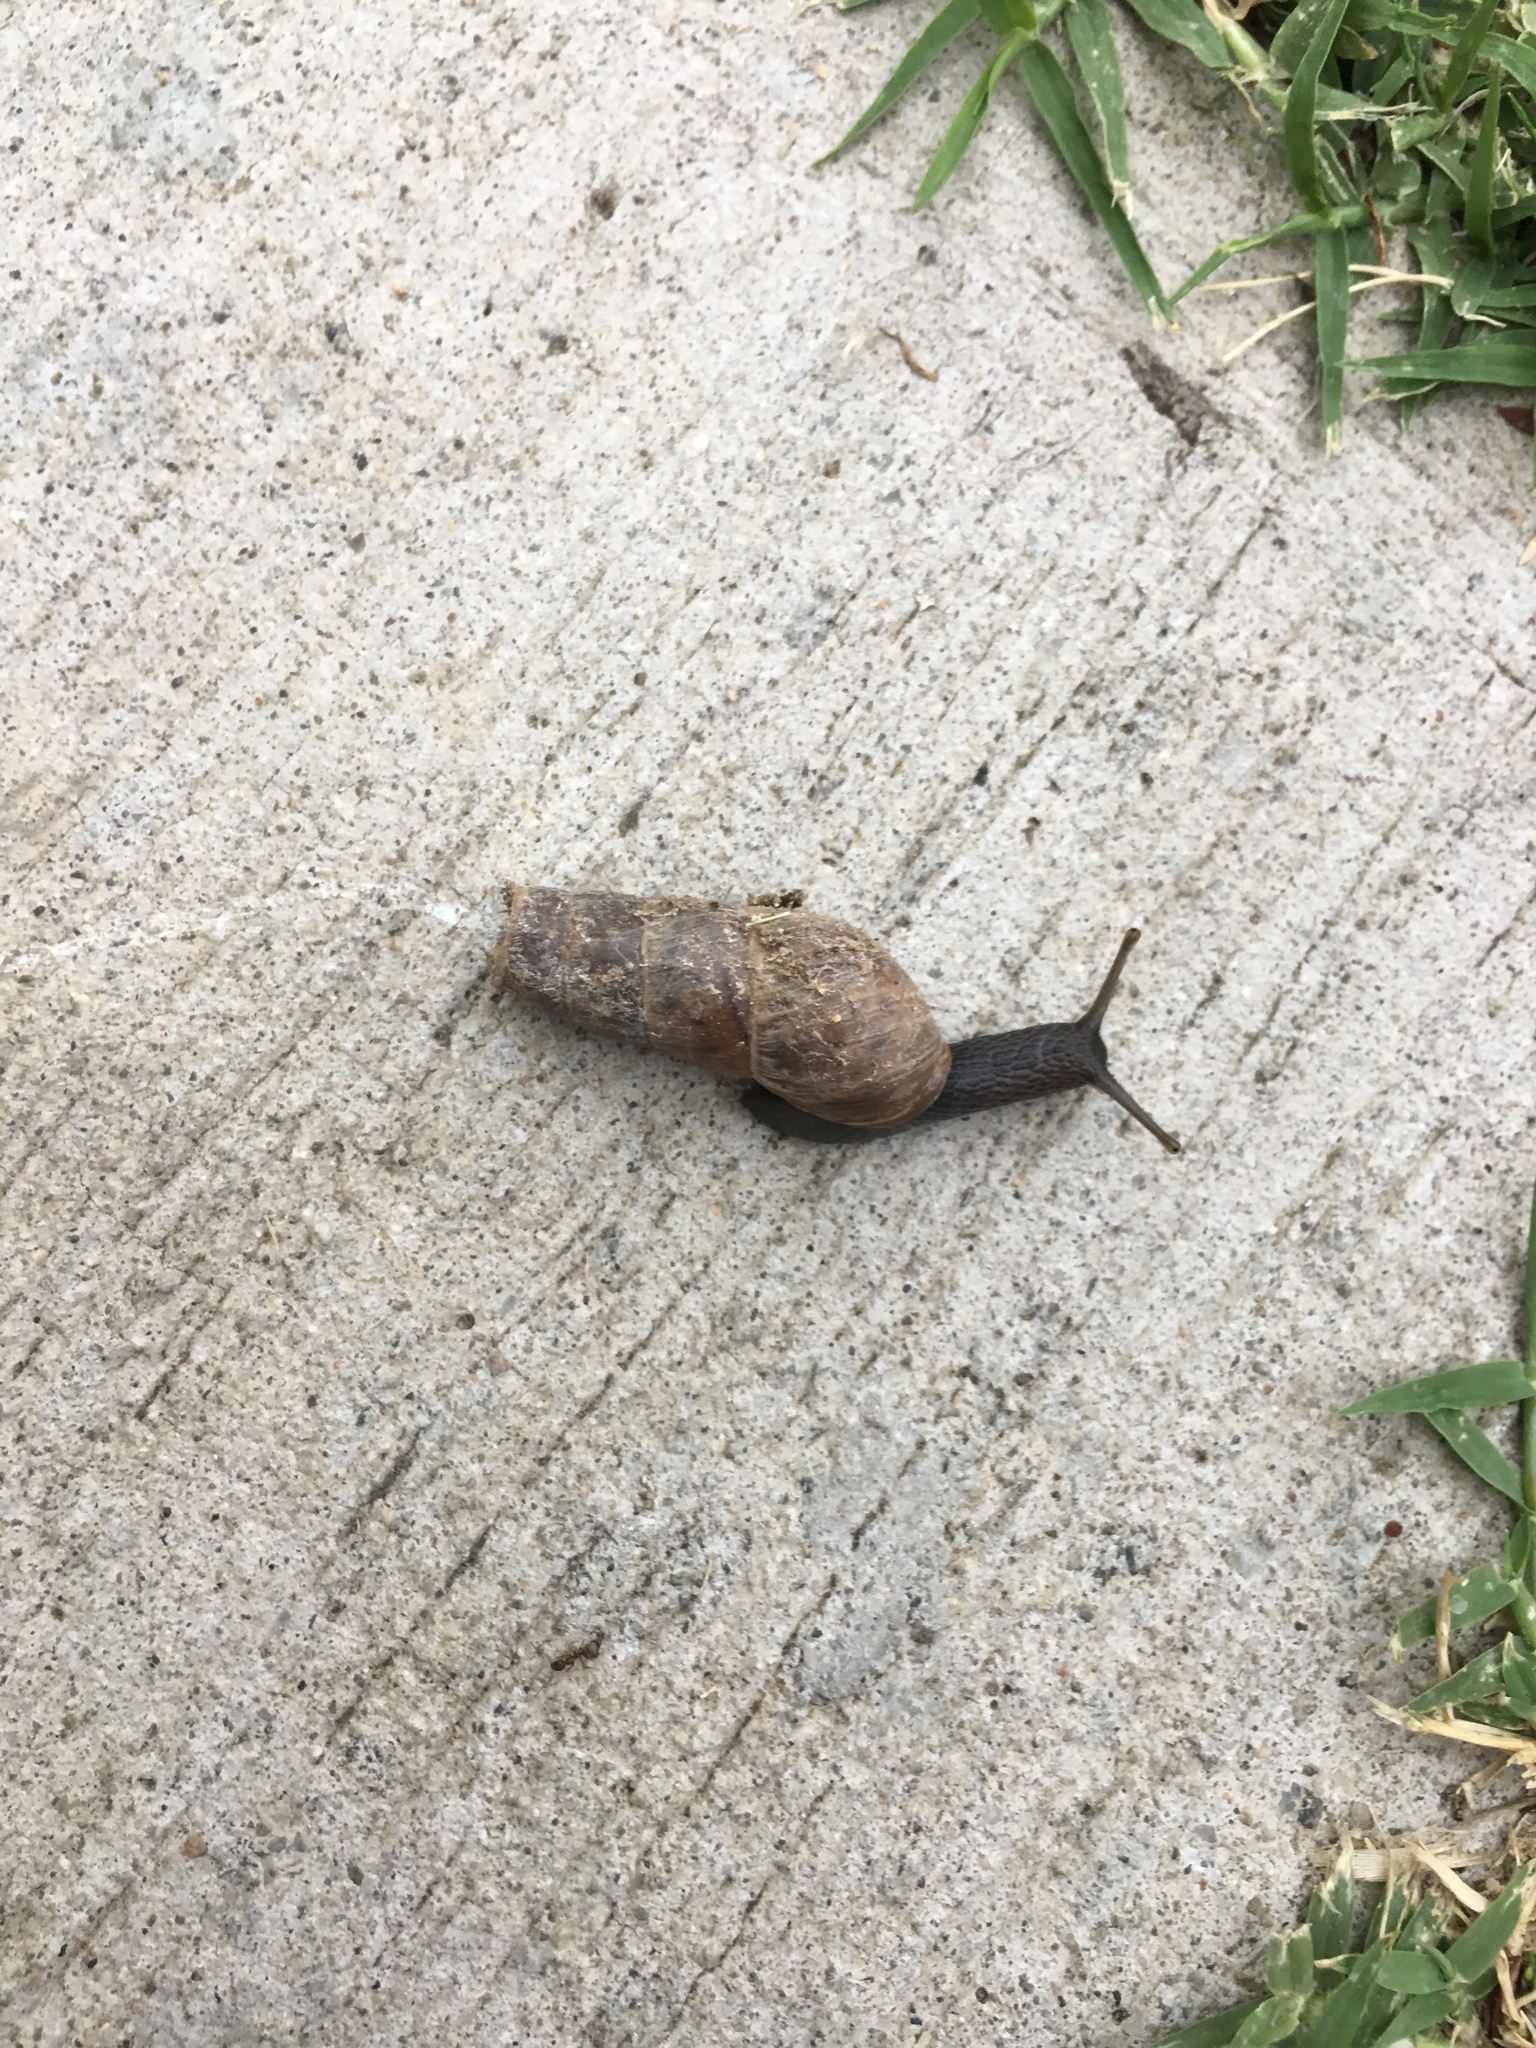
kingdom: Animalia
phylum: Mollusca
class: Gastropoda
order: Stylommatophora
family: Achatinidae
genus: Rumina
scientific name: Rumina decollata
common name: Decollate snail
